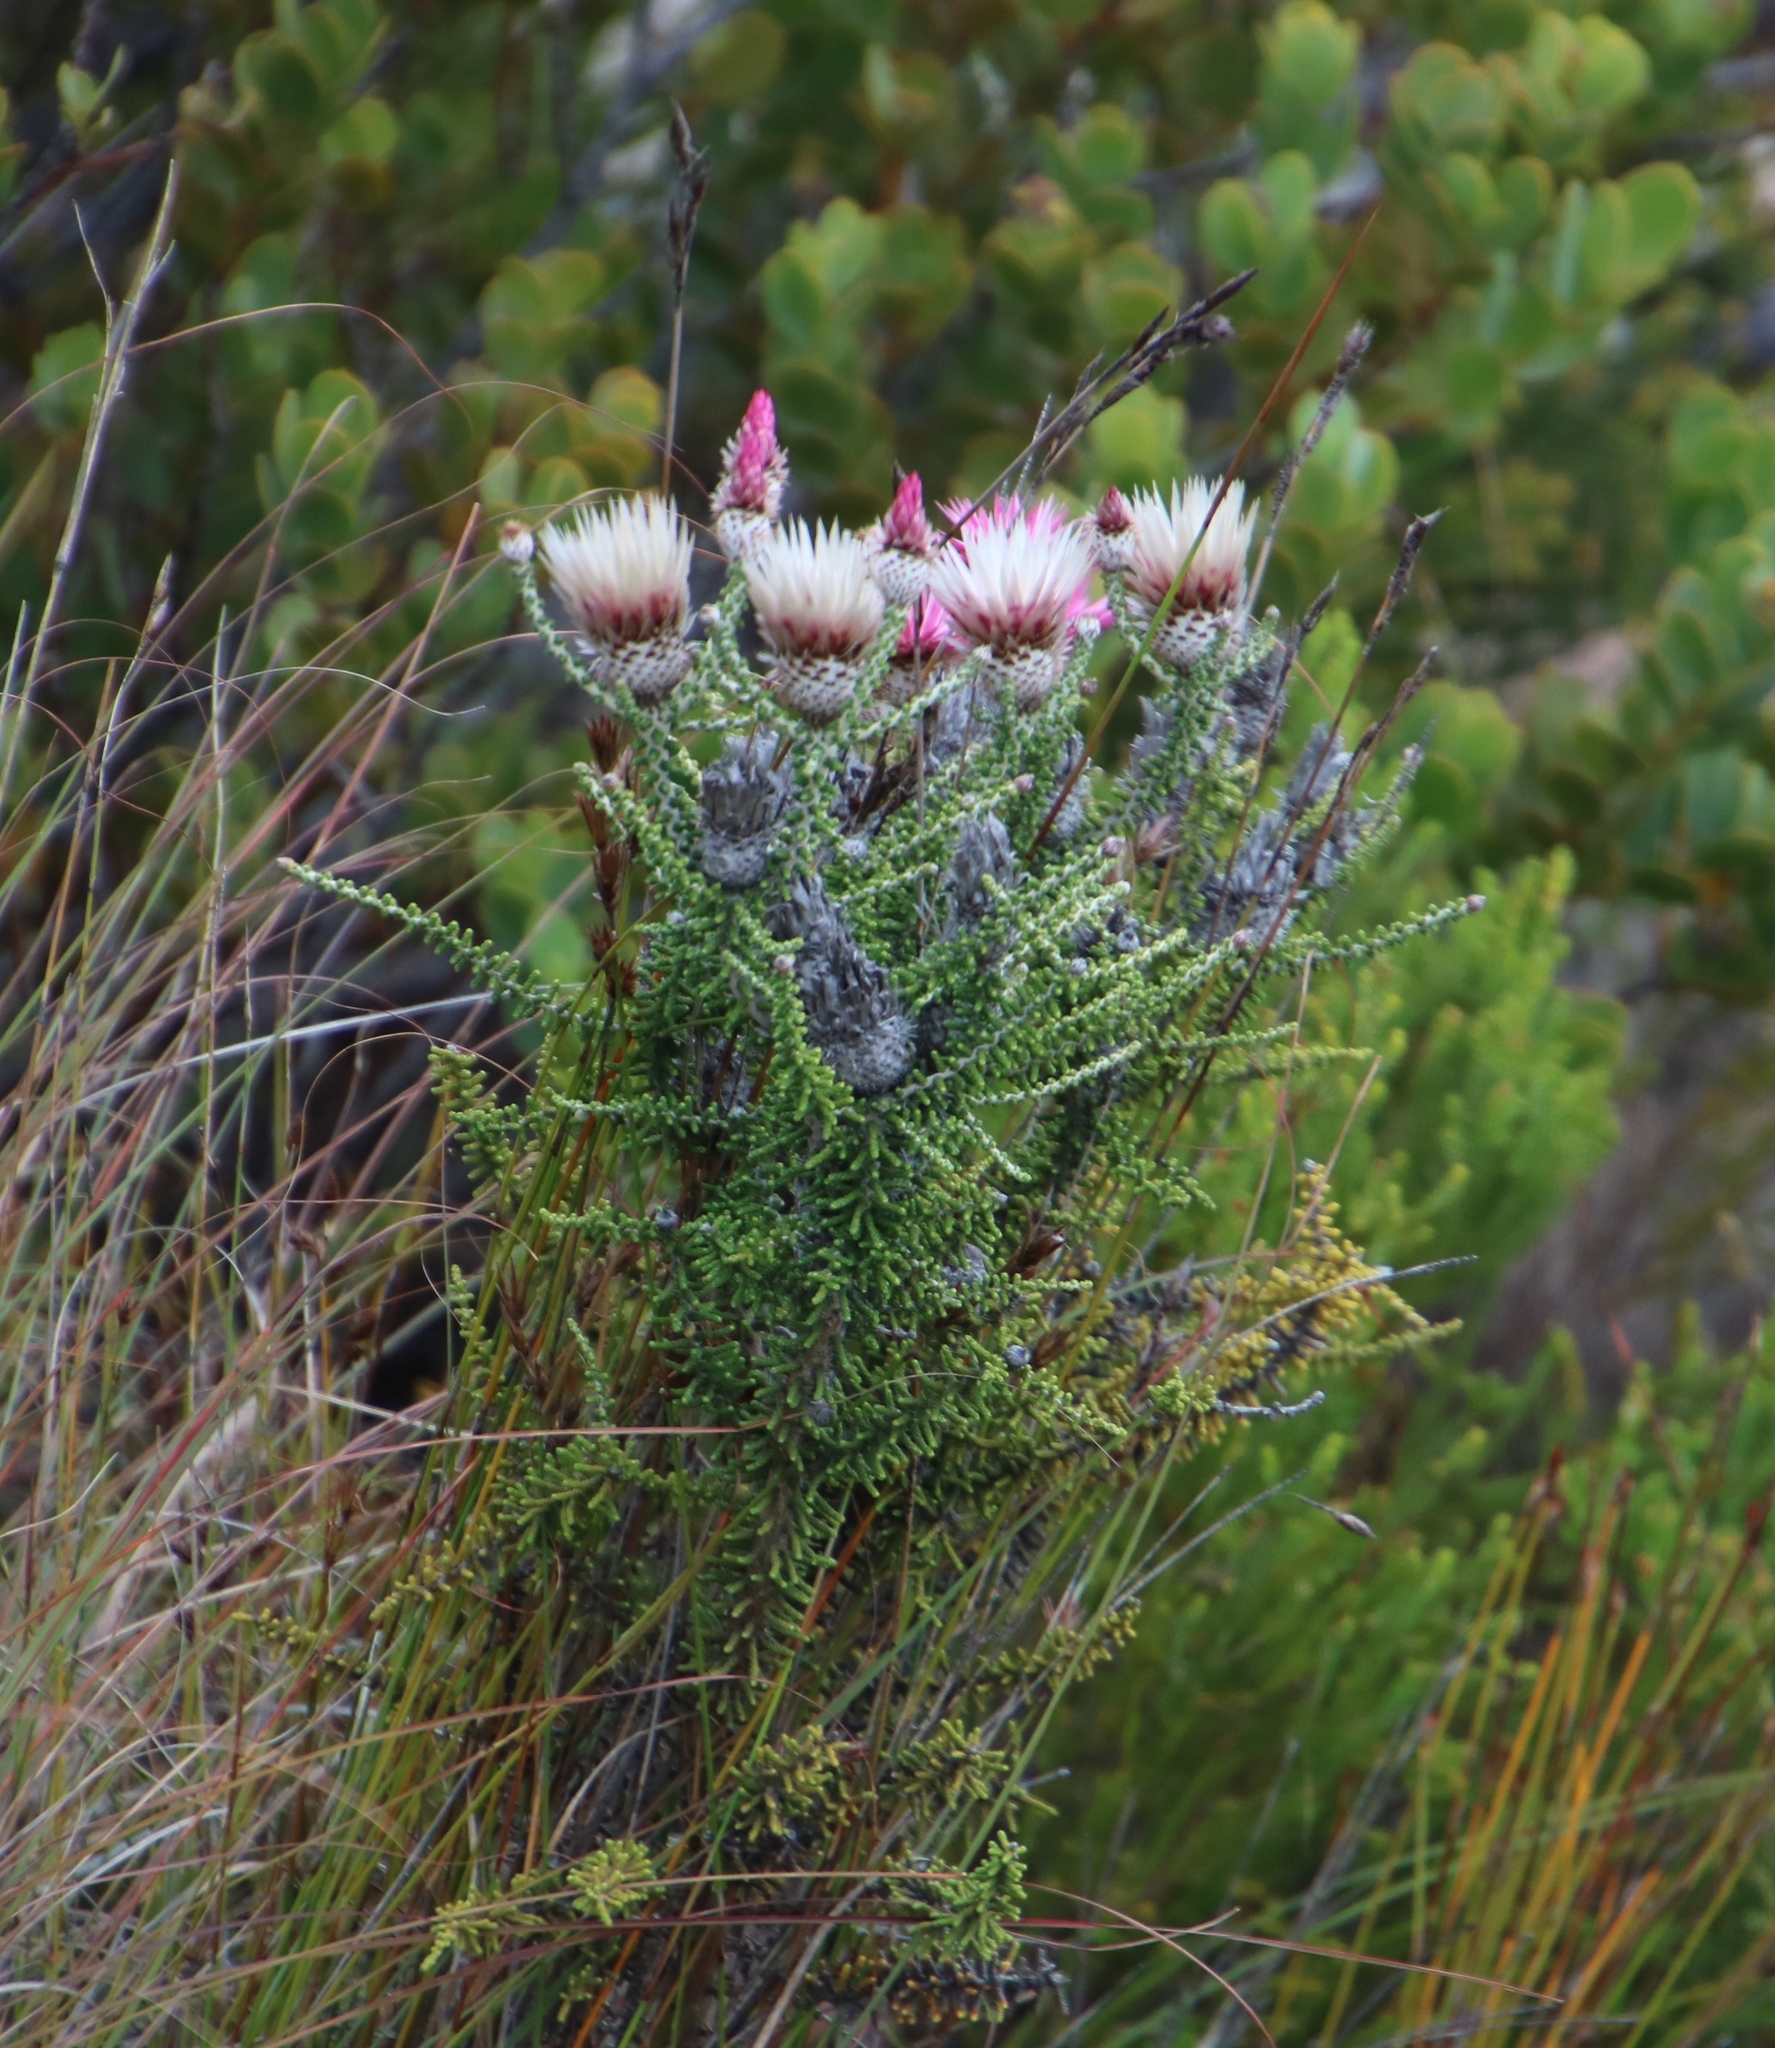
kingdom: Plantae
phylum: Tracheophyta
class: Magnoliopsida
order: Asterales
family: Asteraceae
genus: Phaenocoma
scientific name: Phaenocoma prolifera
